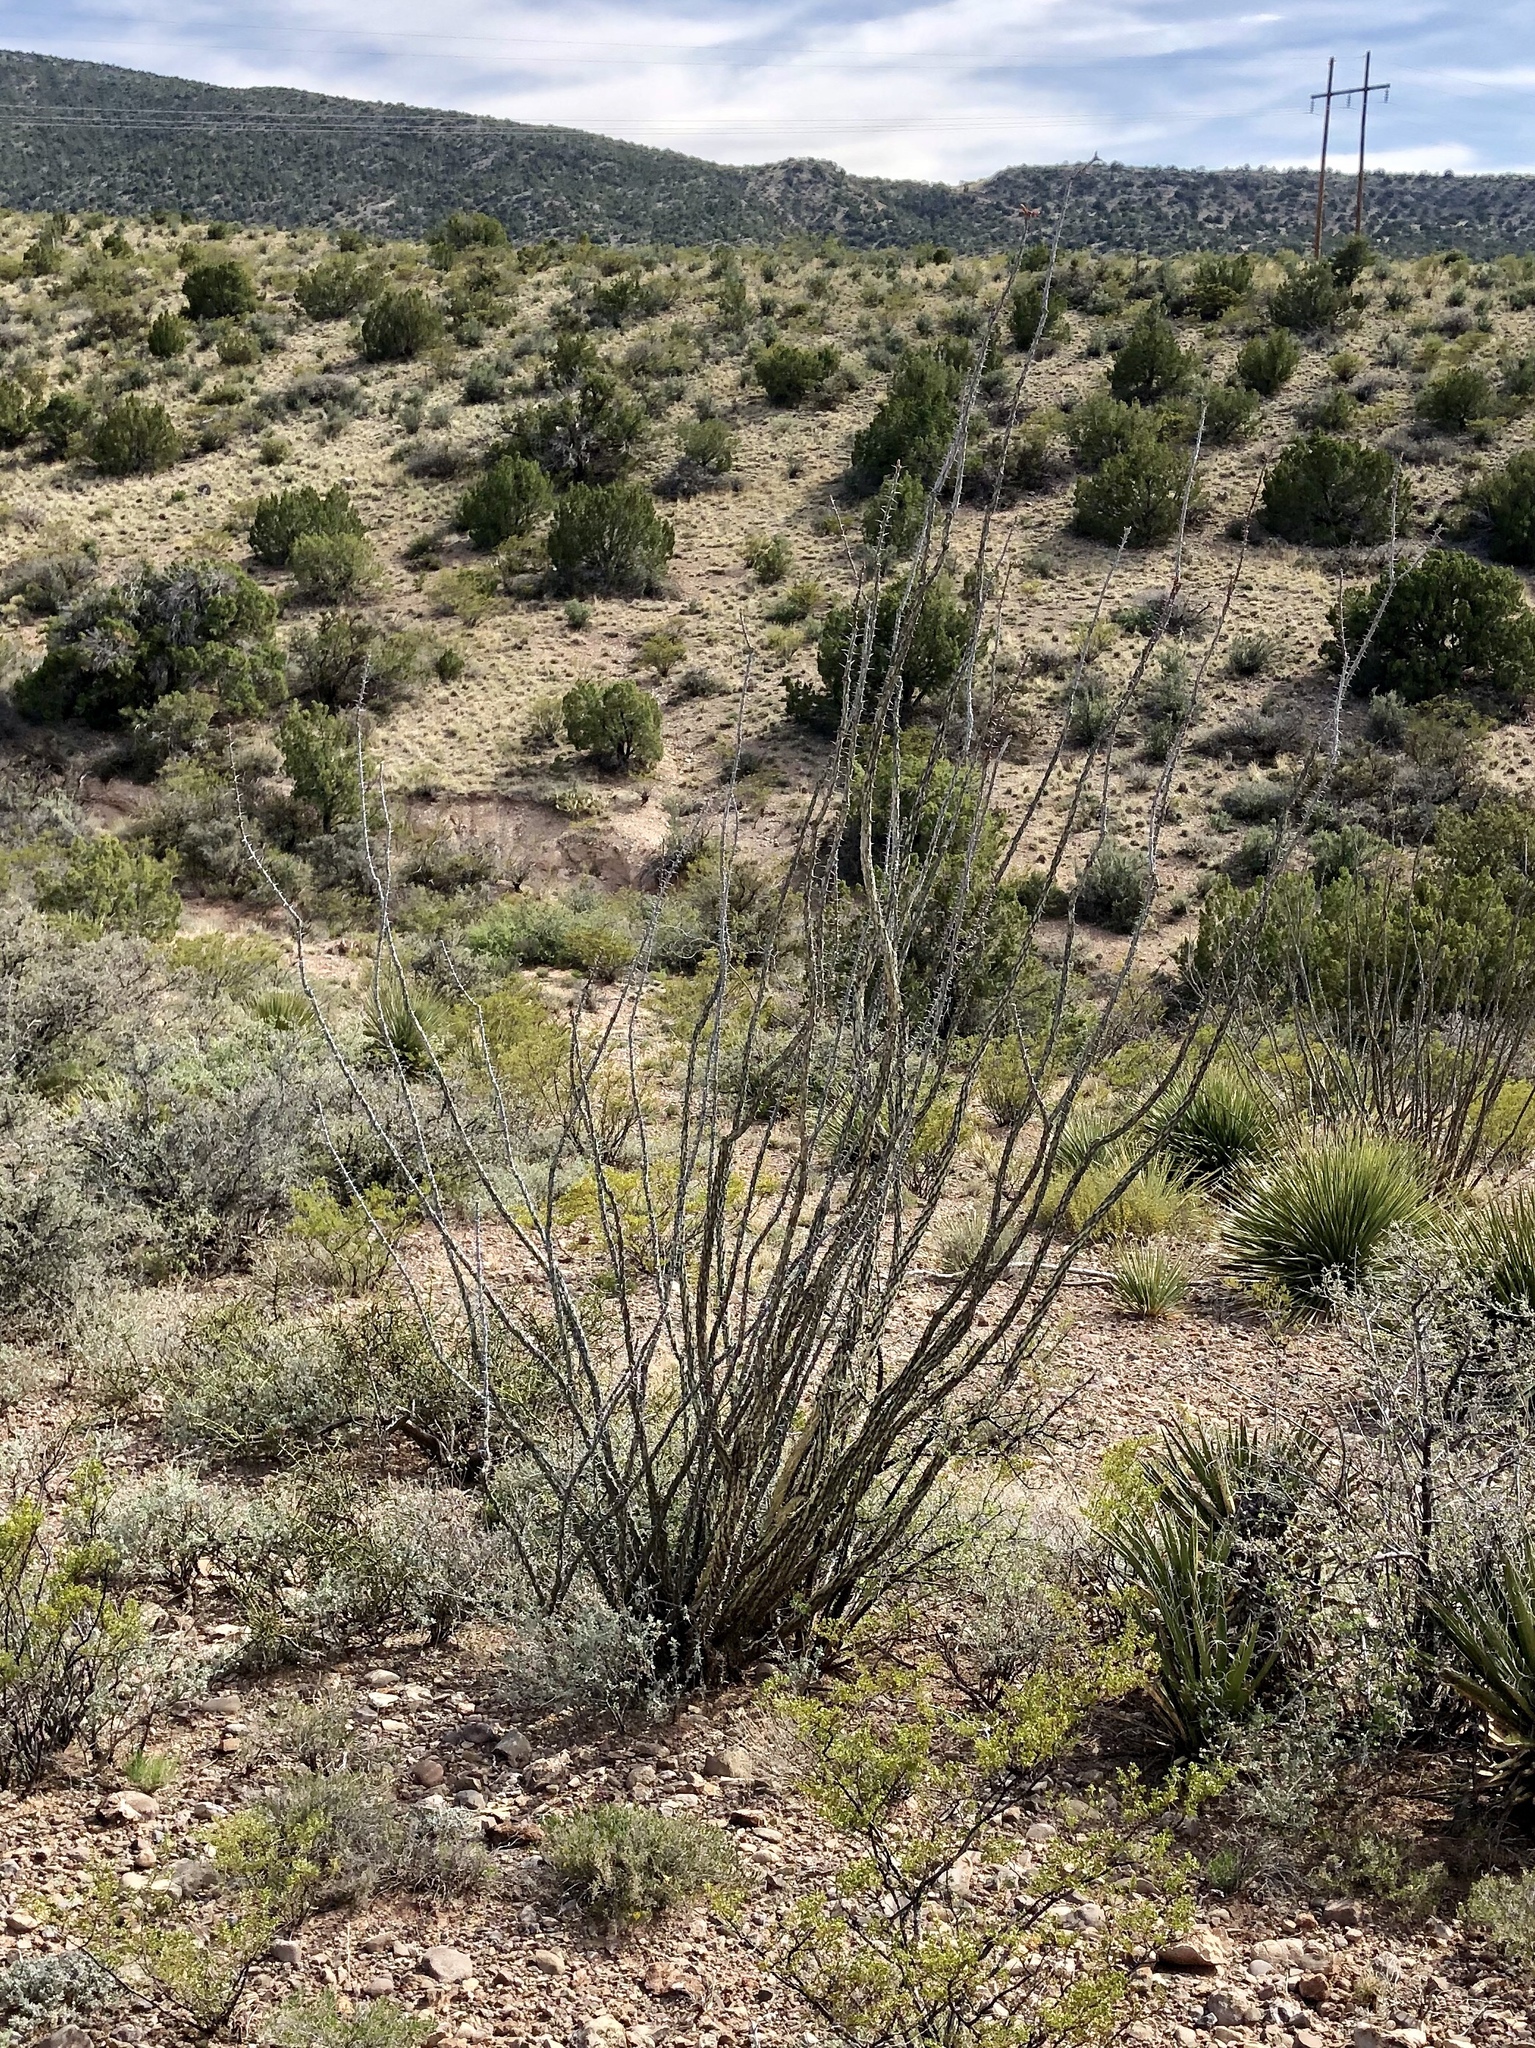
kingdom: Plantae
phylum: Tracheophyta
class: Magnoliopsida
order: Ericales
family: Fouquieriaceae
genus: Fouquieria
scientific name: Fouquieria splendens
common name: Vine-cactus
